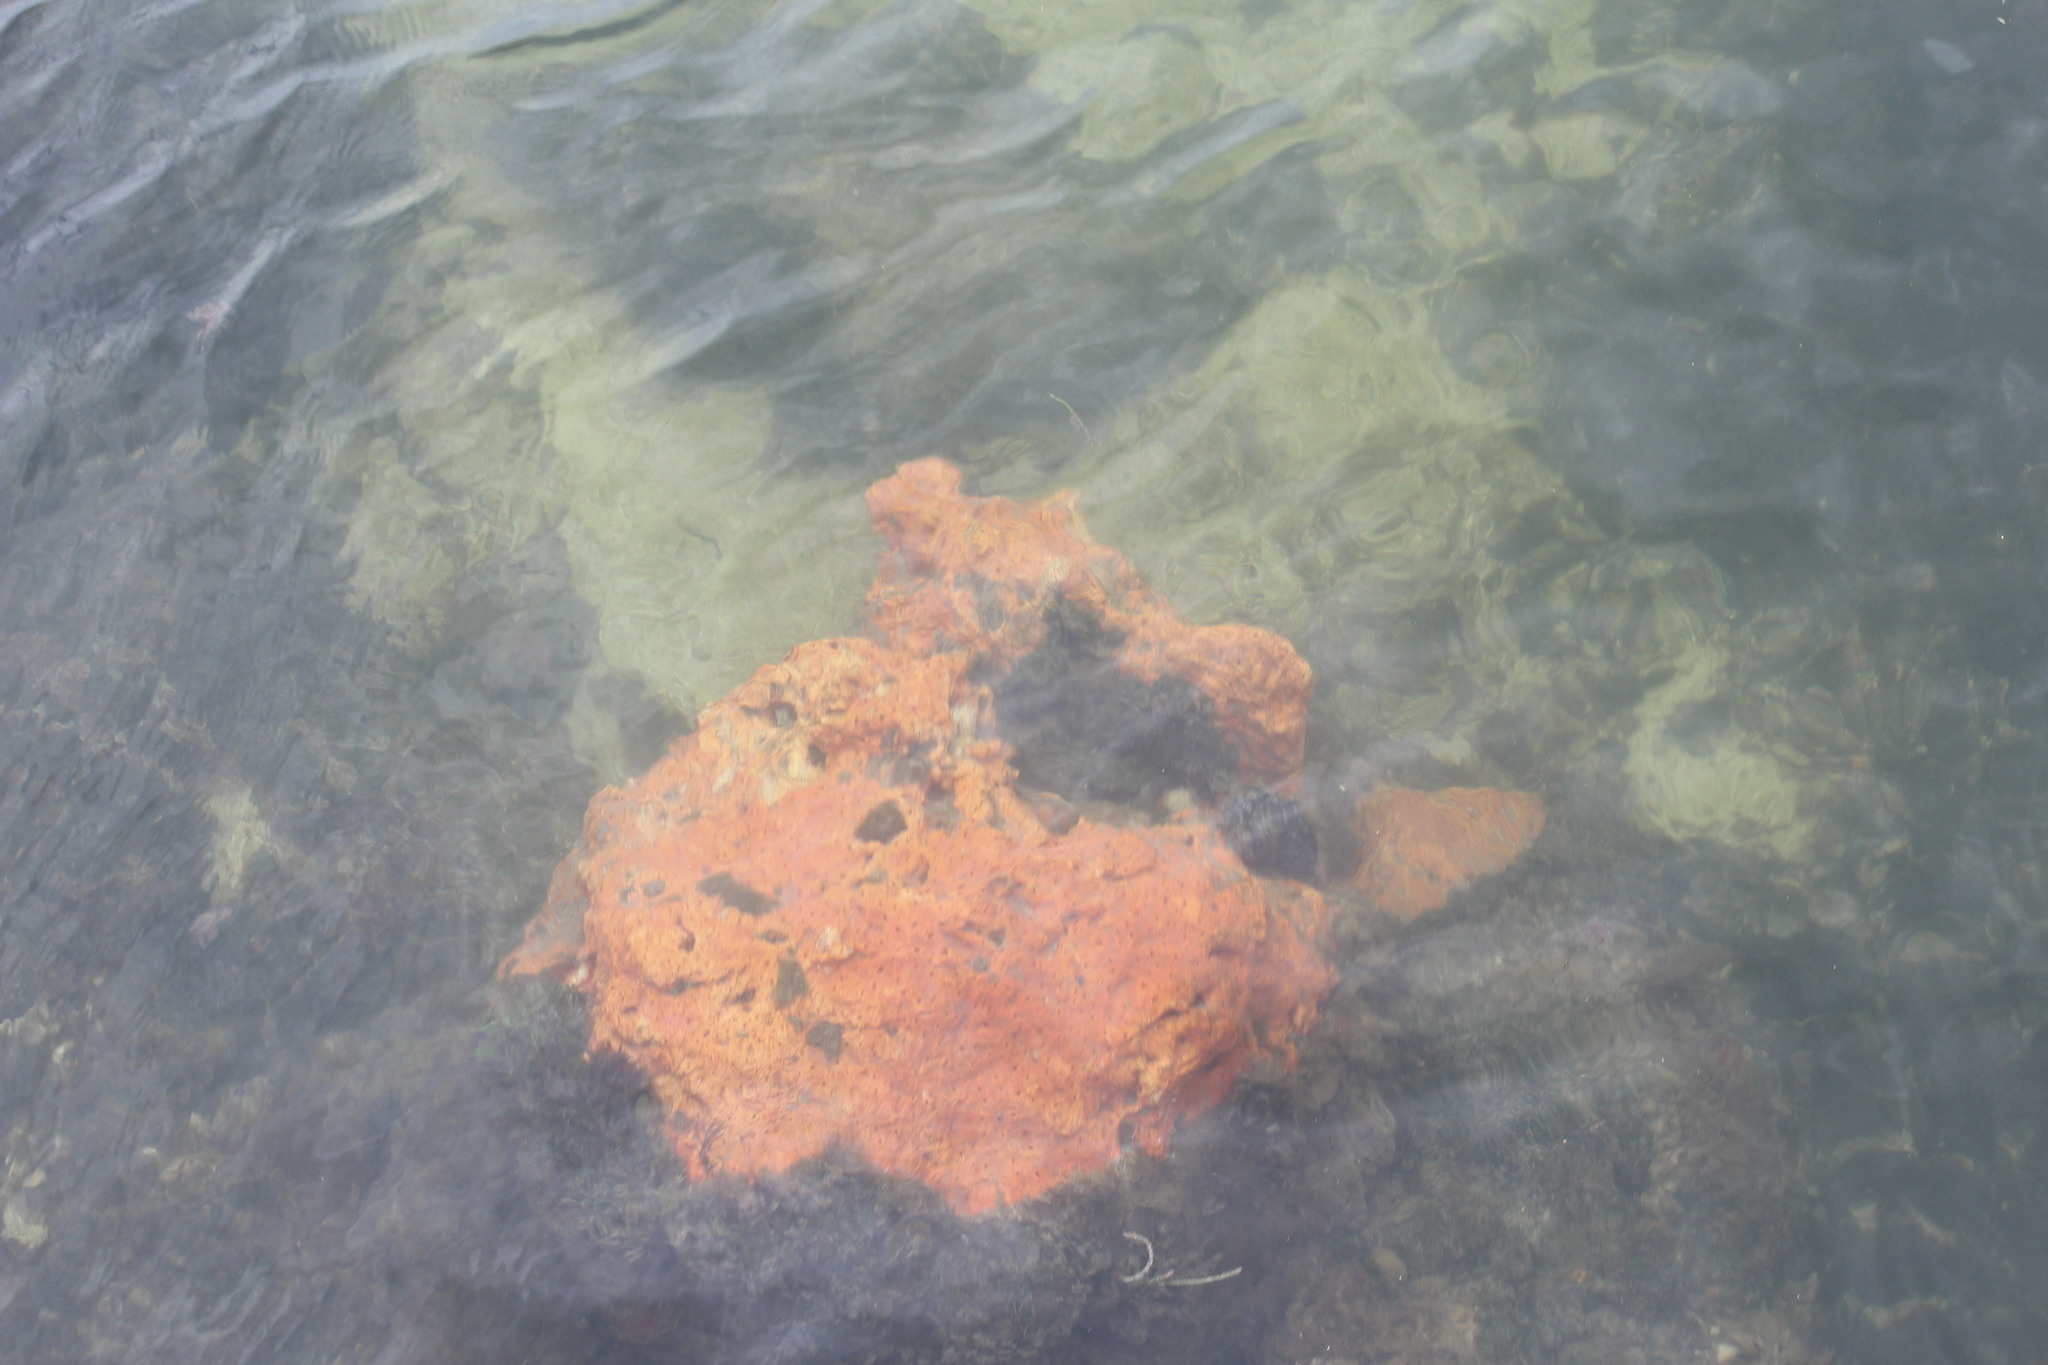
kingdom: Animalia
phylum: Porifera
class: Demospongiae
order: Clionaida
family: Clionaidae
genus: Pione
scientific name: Pione lampa
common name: Red boring sponge
